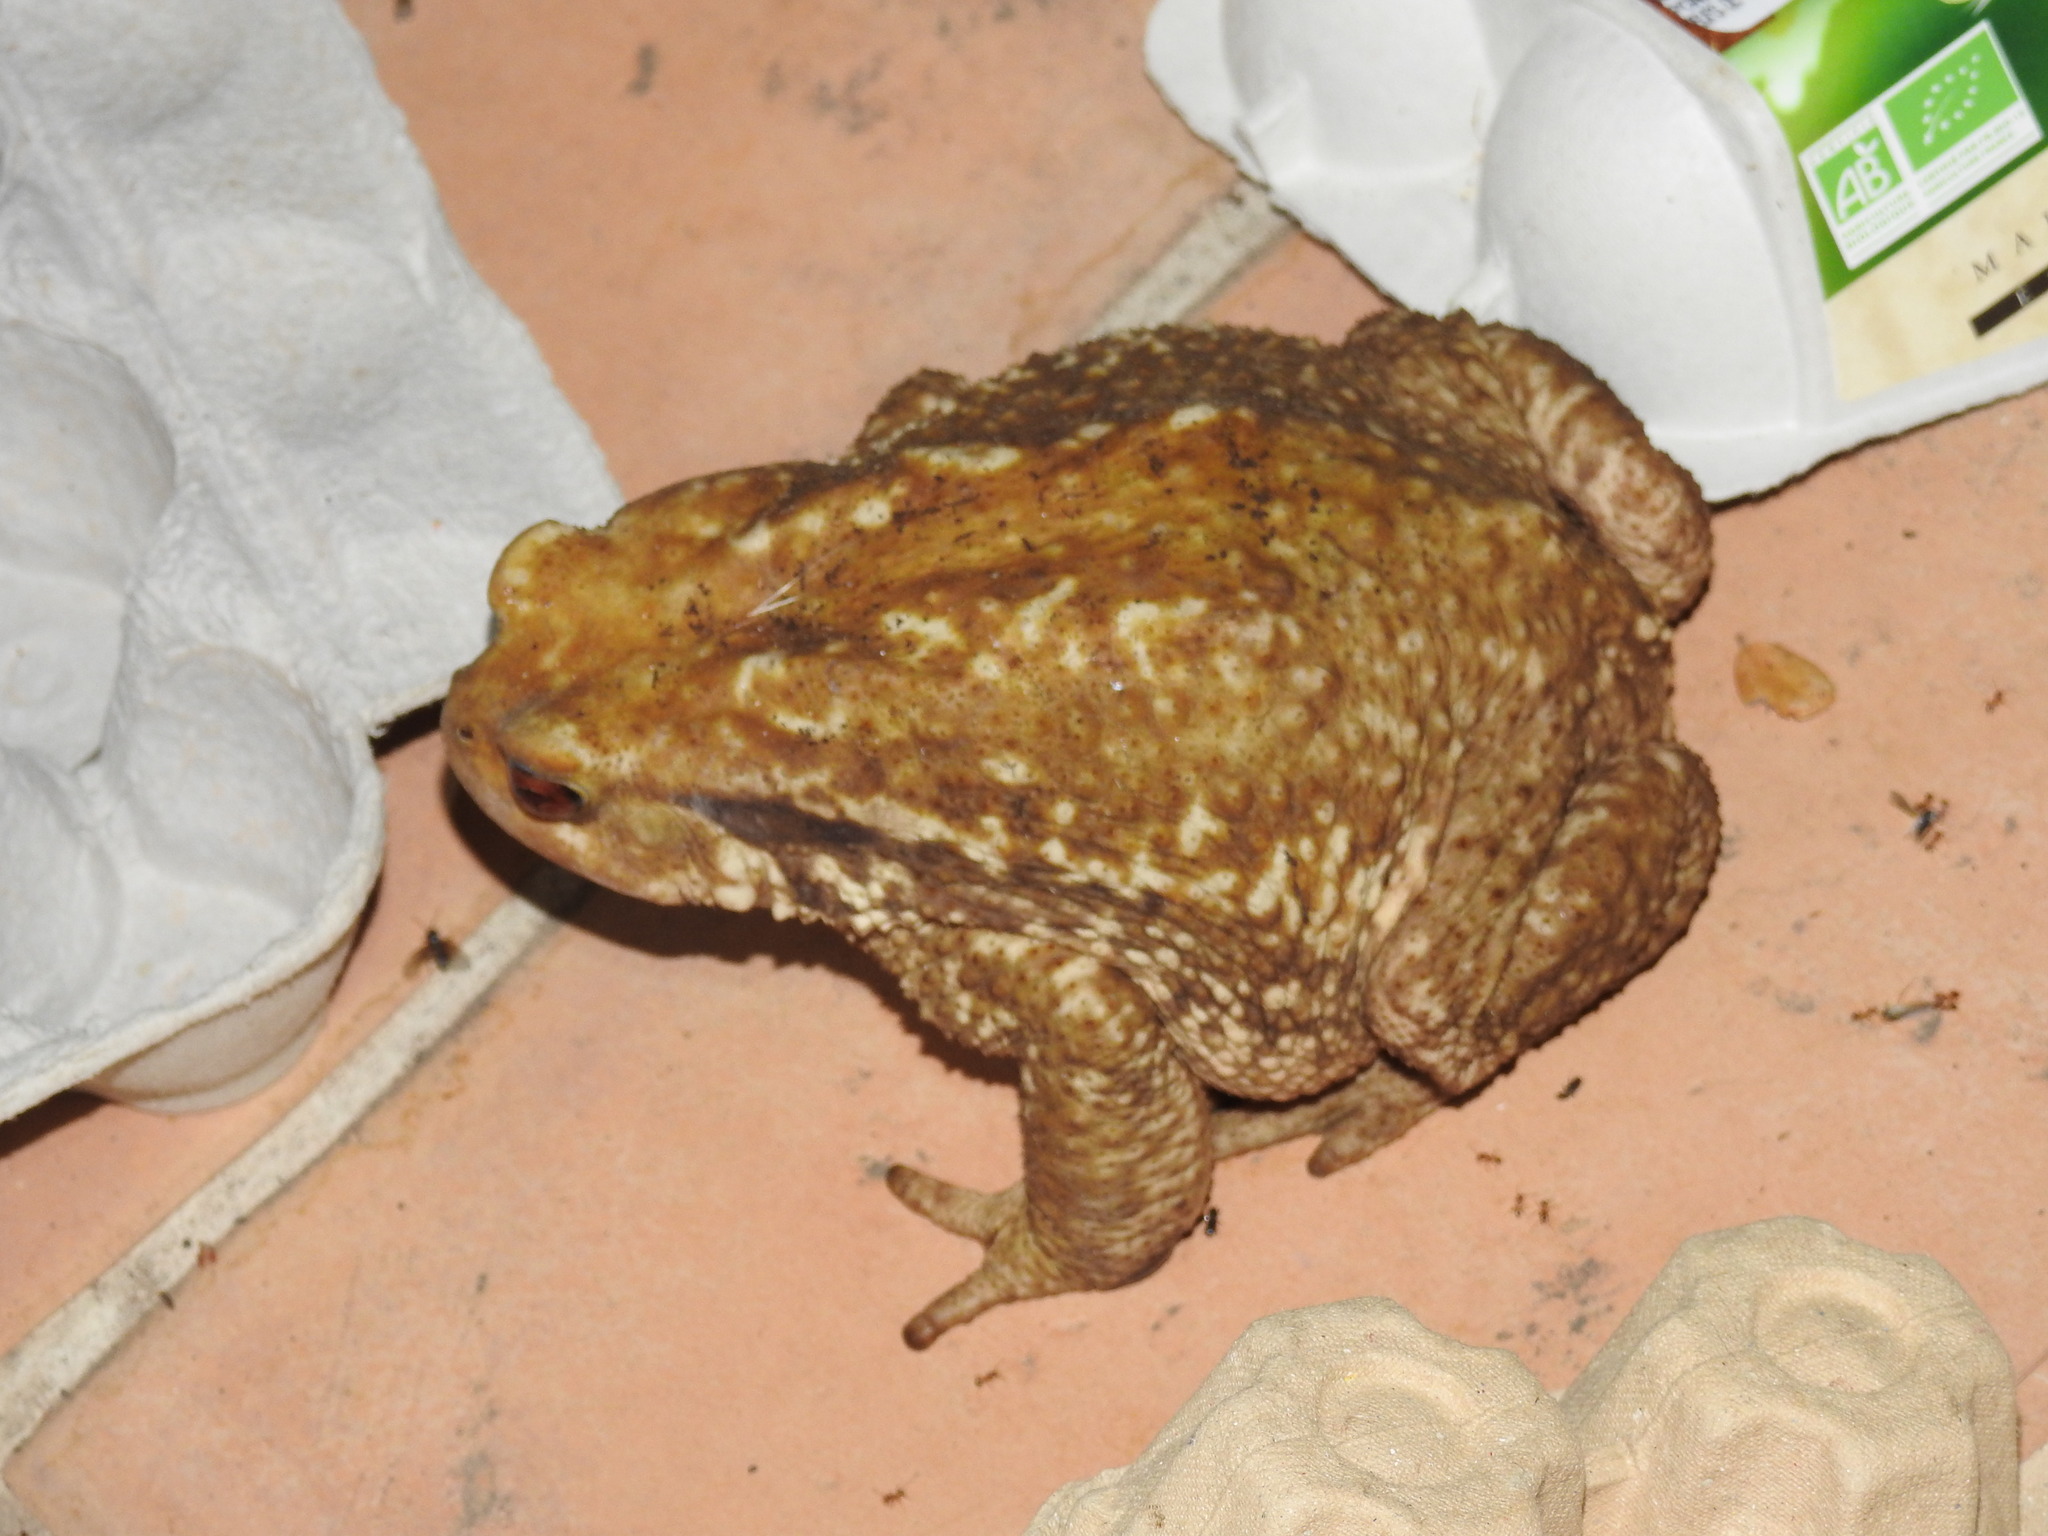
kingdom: Animalia
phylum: Chordata
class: Amphibia
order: Anura
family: Bufonidae
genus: Bufo
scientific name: Bufo spinosus
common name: Western common toad
